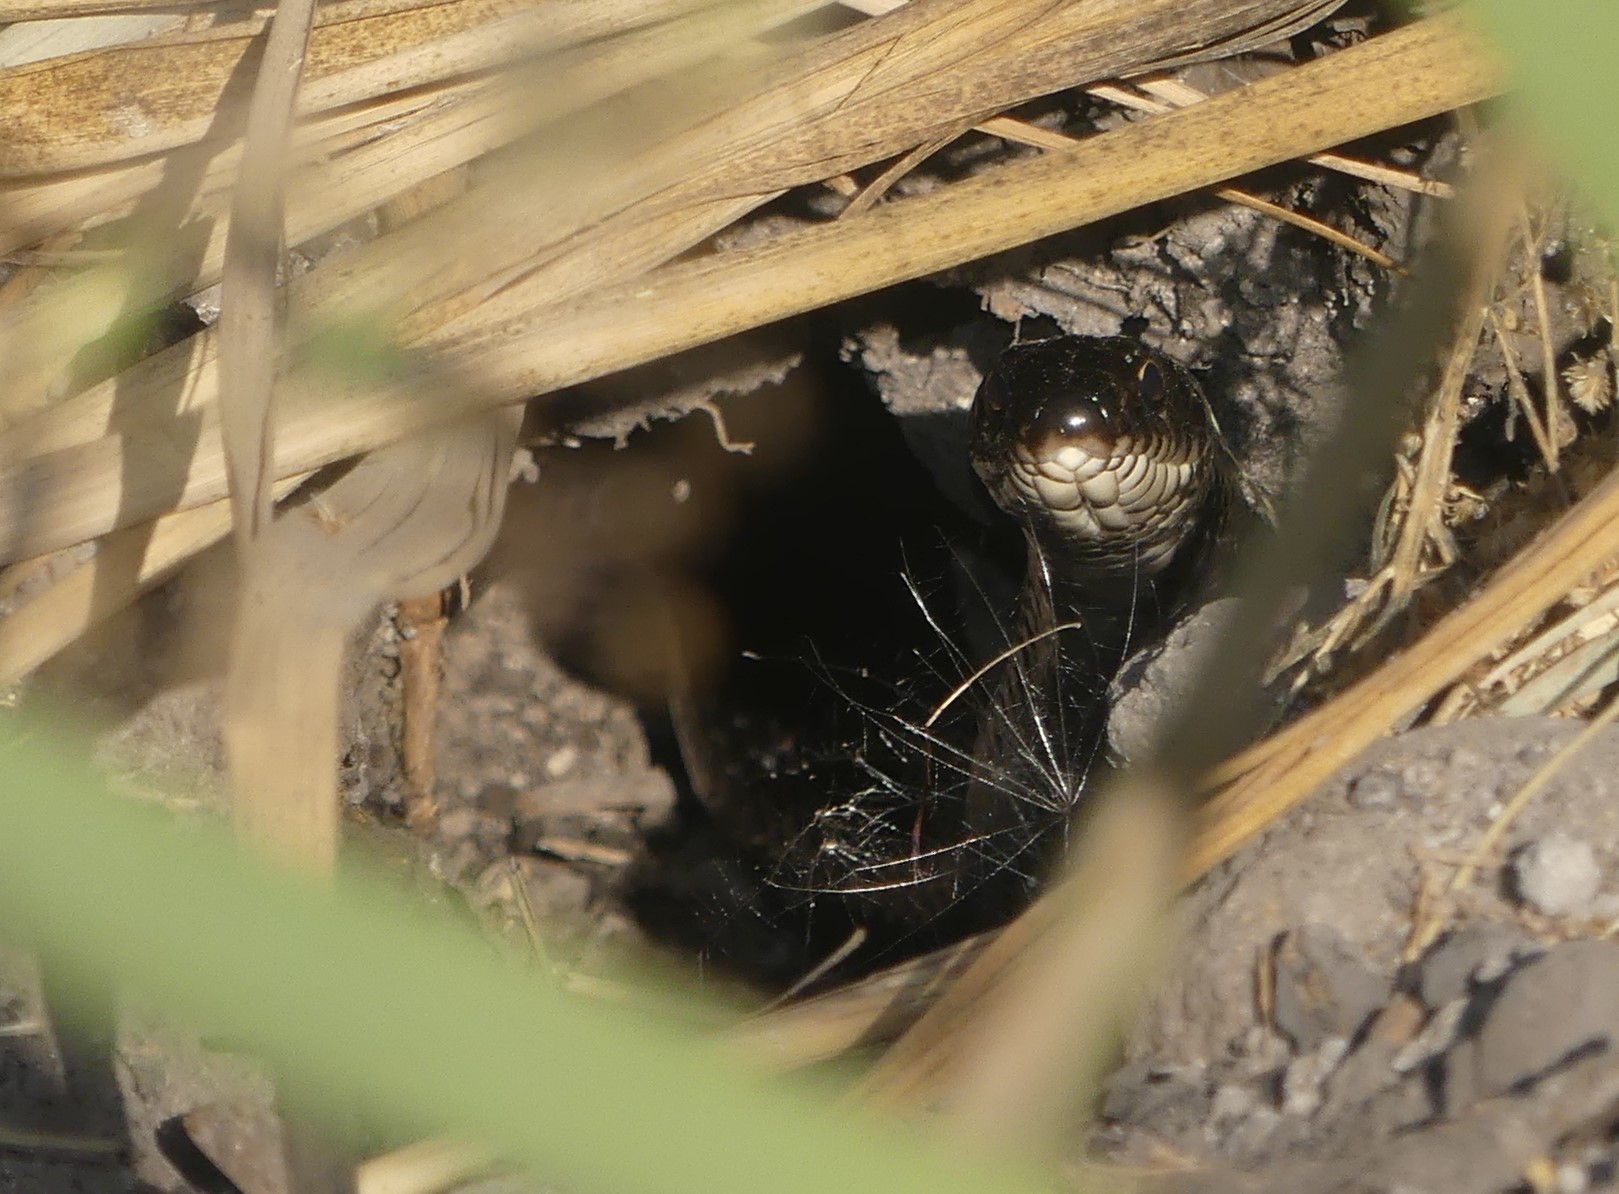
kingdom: Animalia
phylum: Chordata
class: Squamata
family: Colubridae
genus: Dolichophis
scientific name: Dolichophis jugularis
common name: Large whip snake
